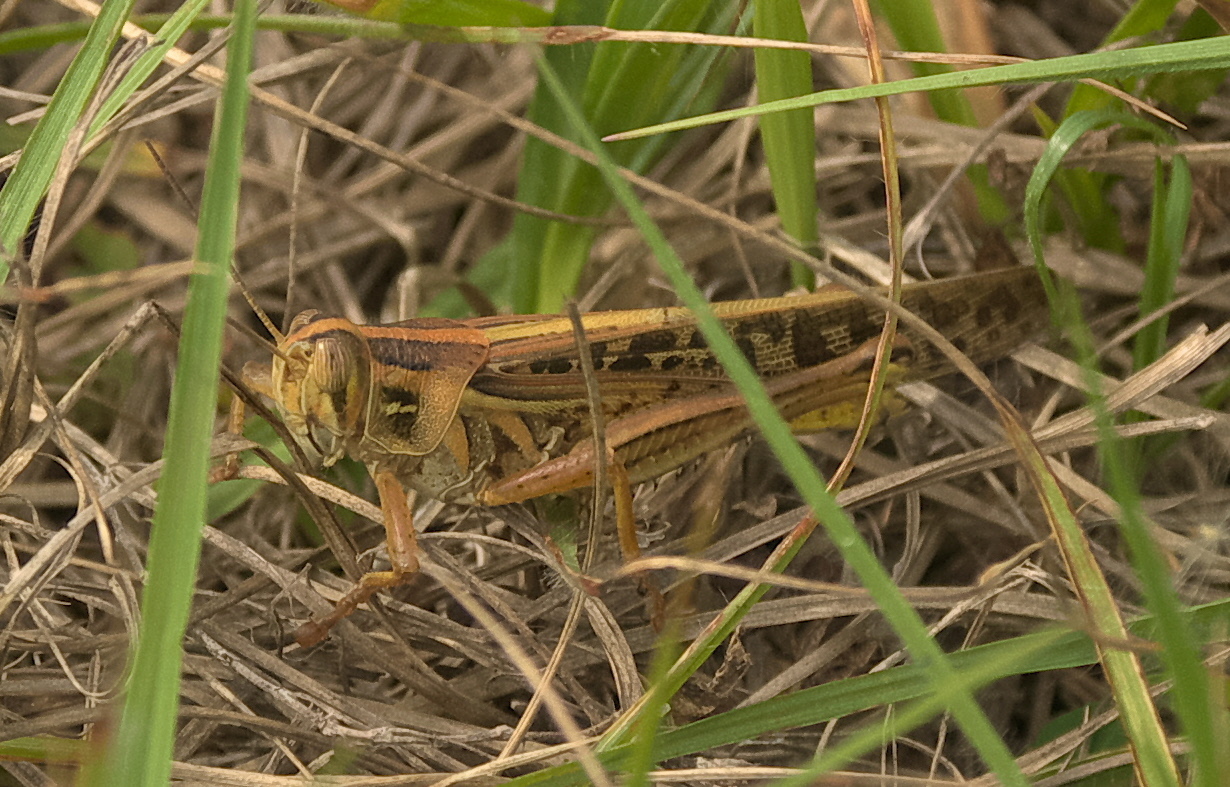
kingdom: Animalia
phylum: Arthropoda
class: Insecta
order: Orthoptera
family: Acrididae
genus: Schistocerca
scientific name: Schistocerca americana
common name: American bird locust
